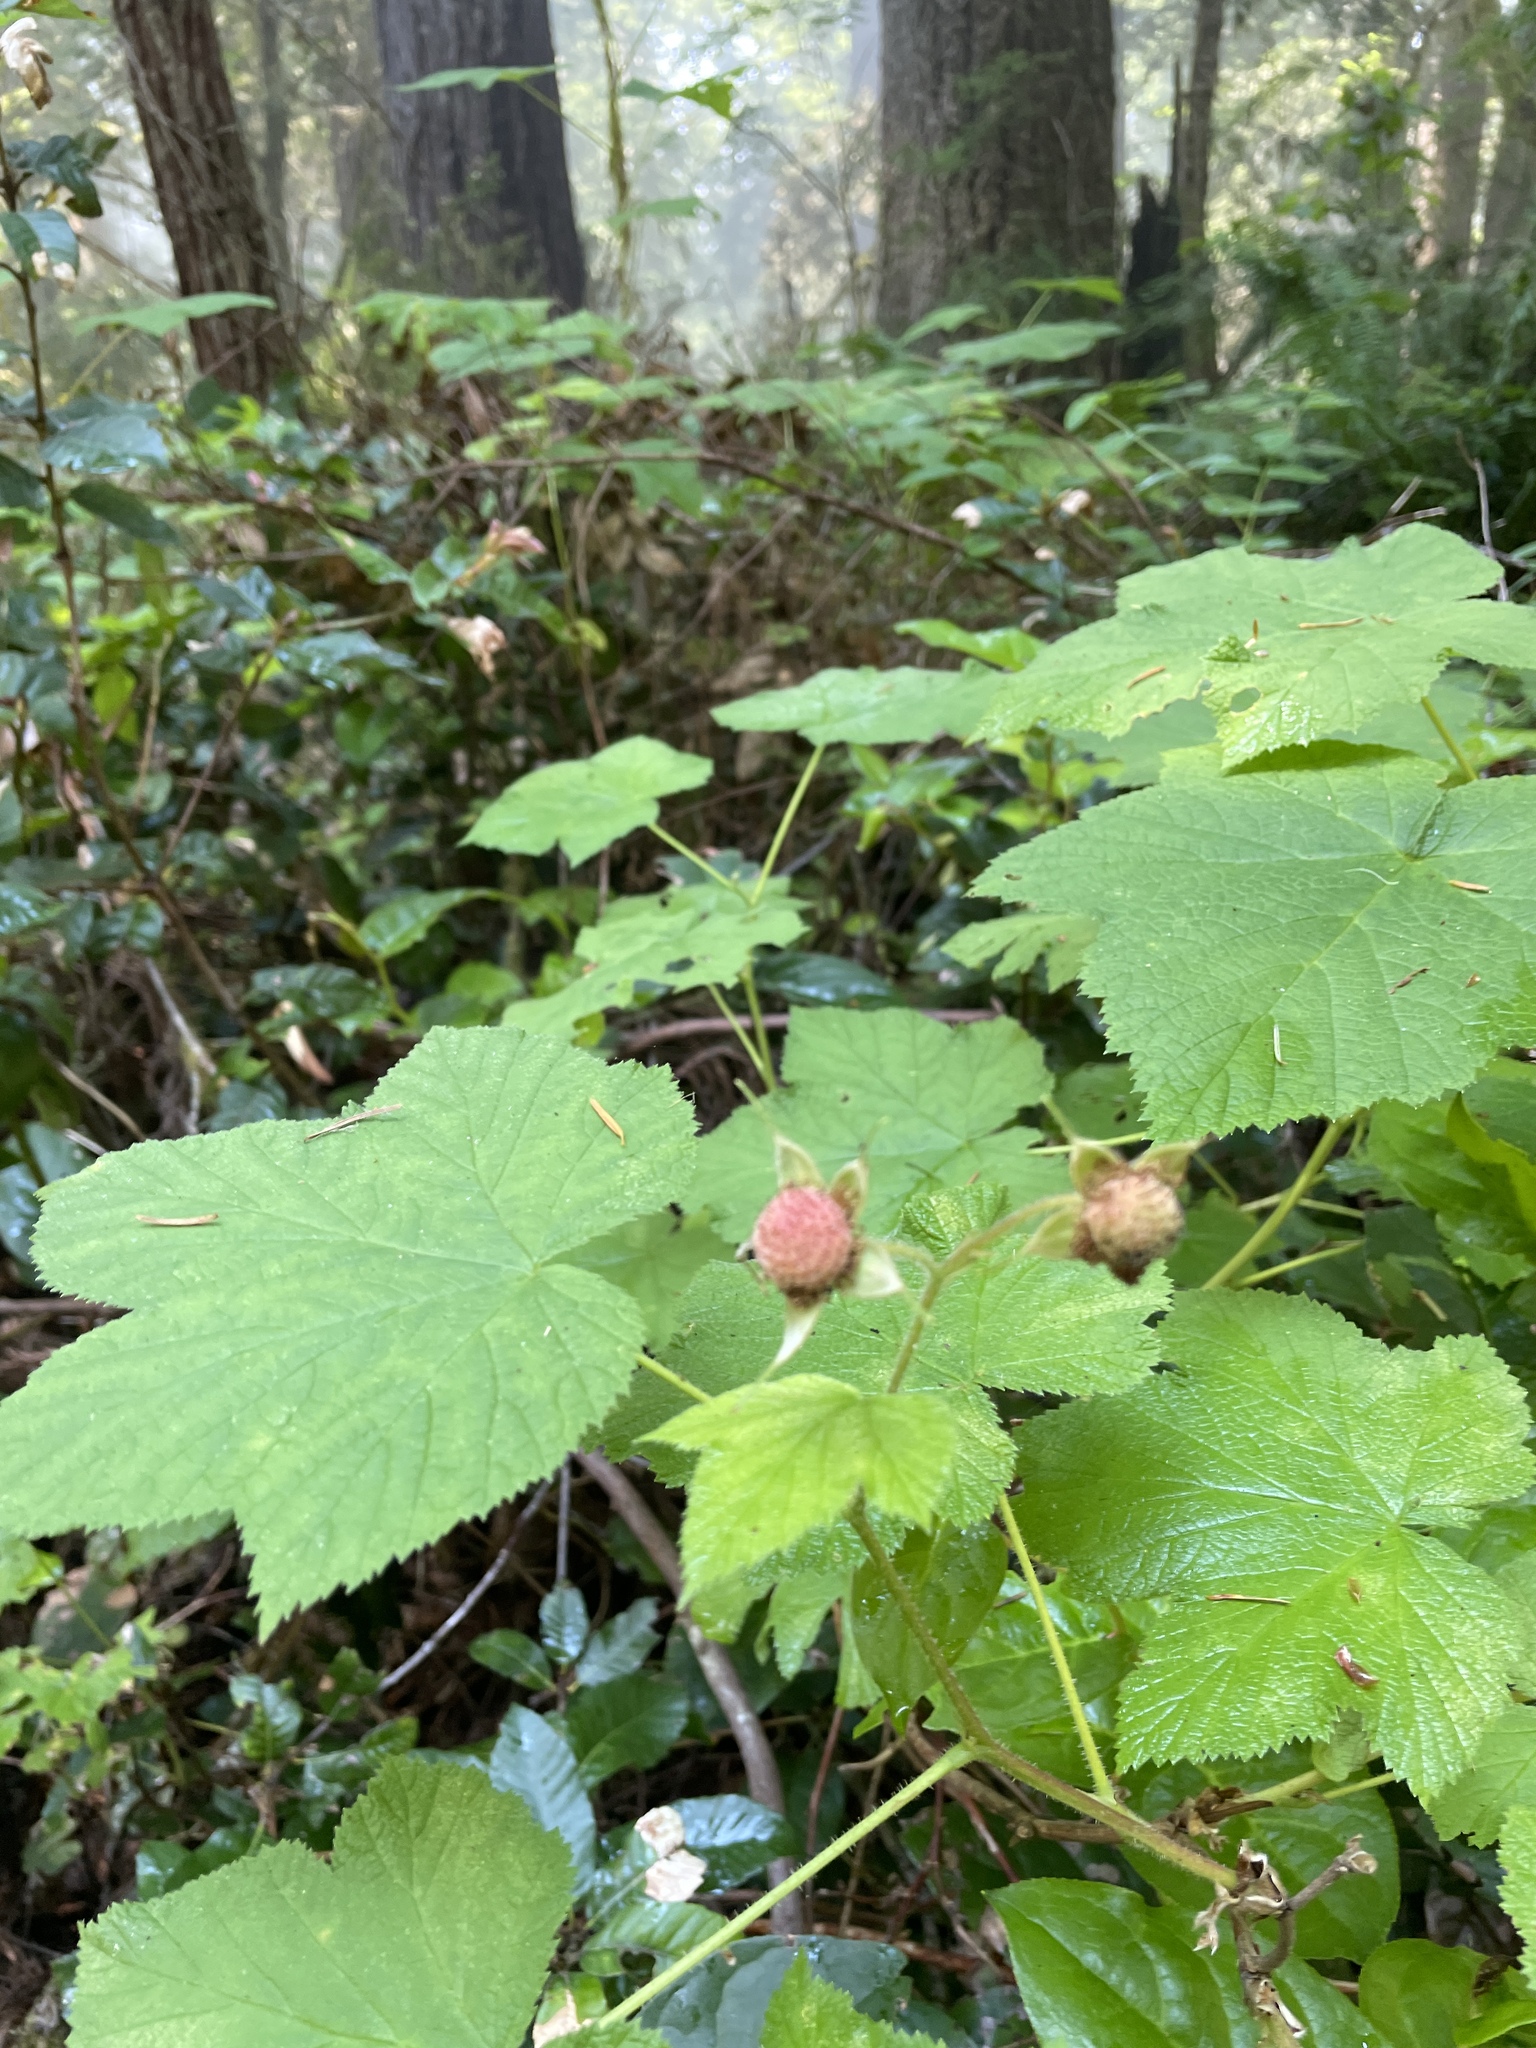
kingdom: Plantae
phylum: Tracheophyta
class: Magnoliopsida
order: Rosales
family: Rosaceae
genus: Rubus
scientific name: Rubus parviflorus
